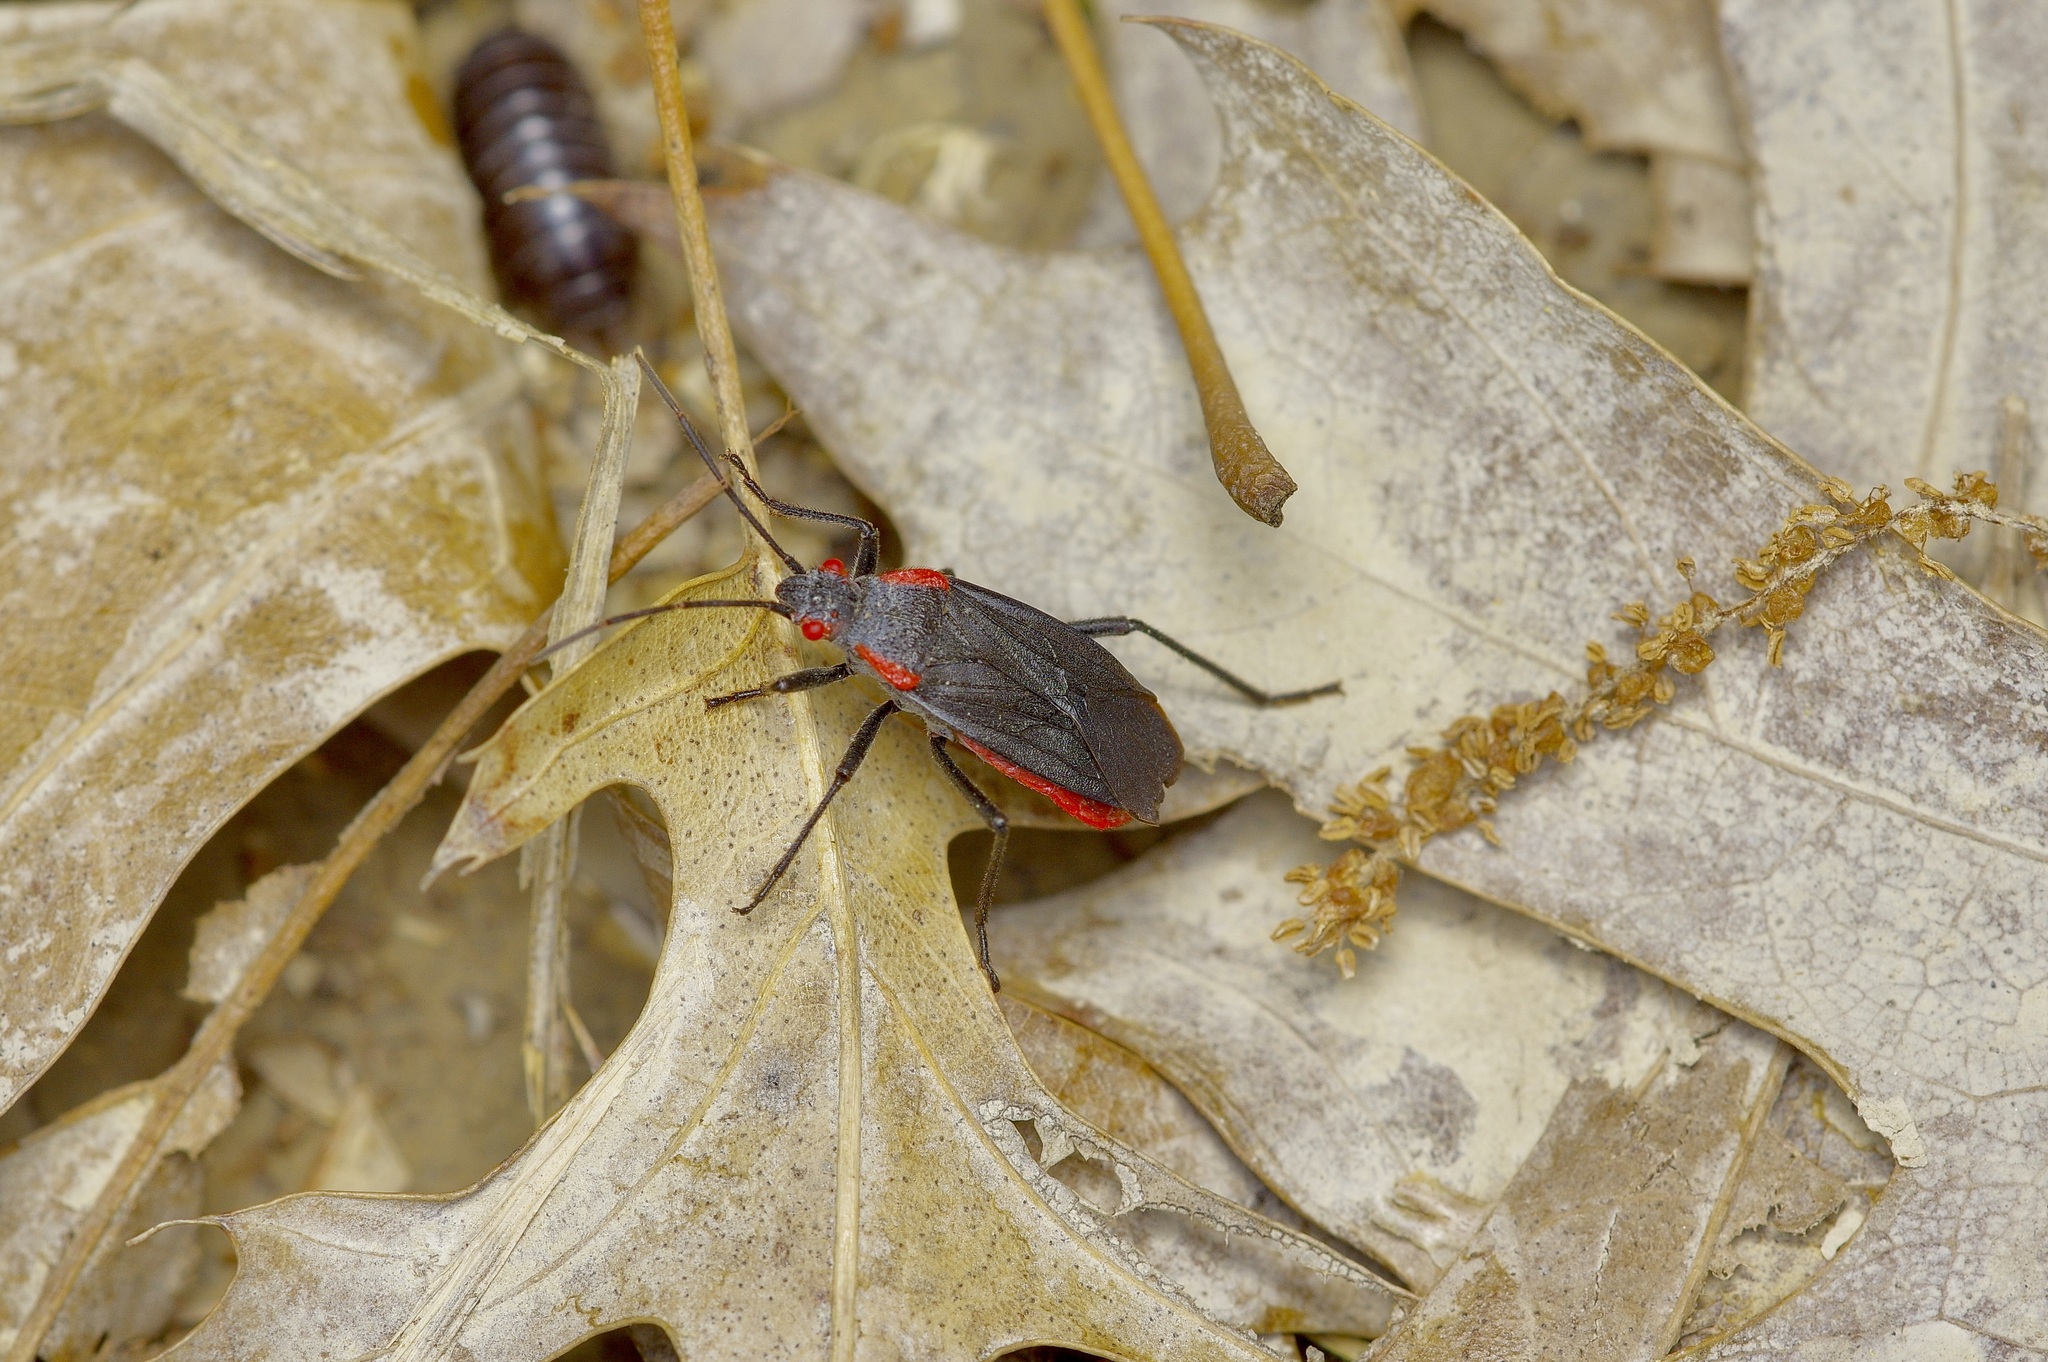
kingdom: Animalia
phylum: Arthropoda
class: Insecta
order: Hemiptera
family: Rhopalidae
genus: Jadera
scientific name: Jadera haematoloma
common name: Red-shouldered bug
